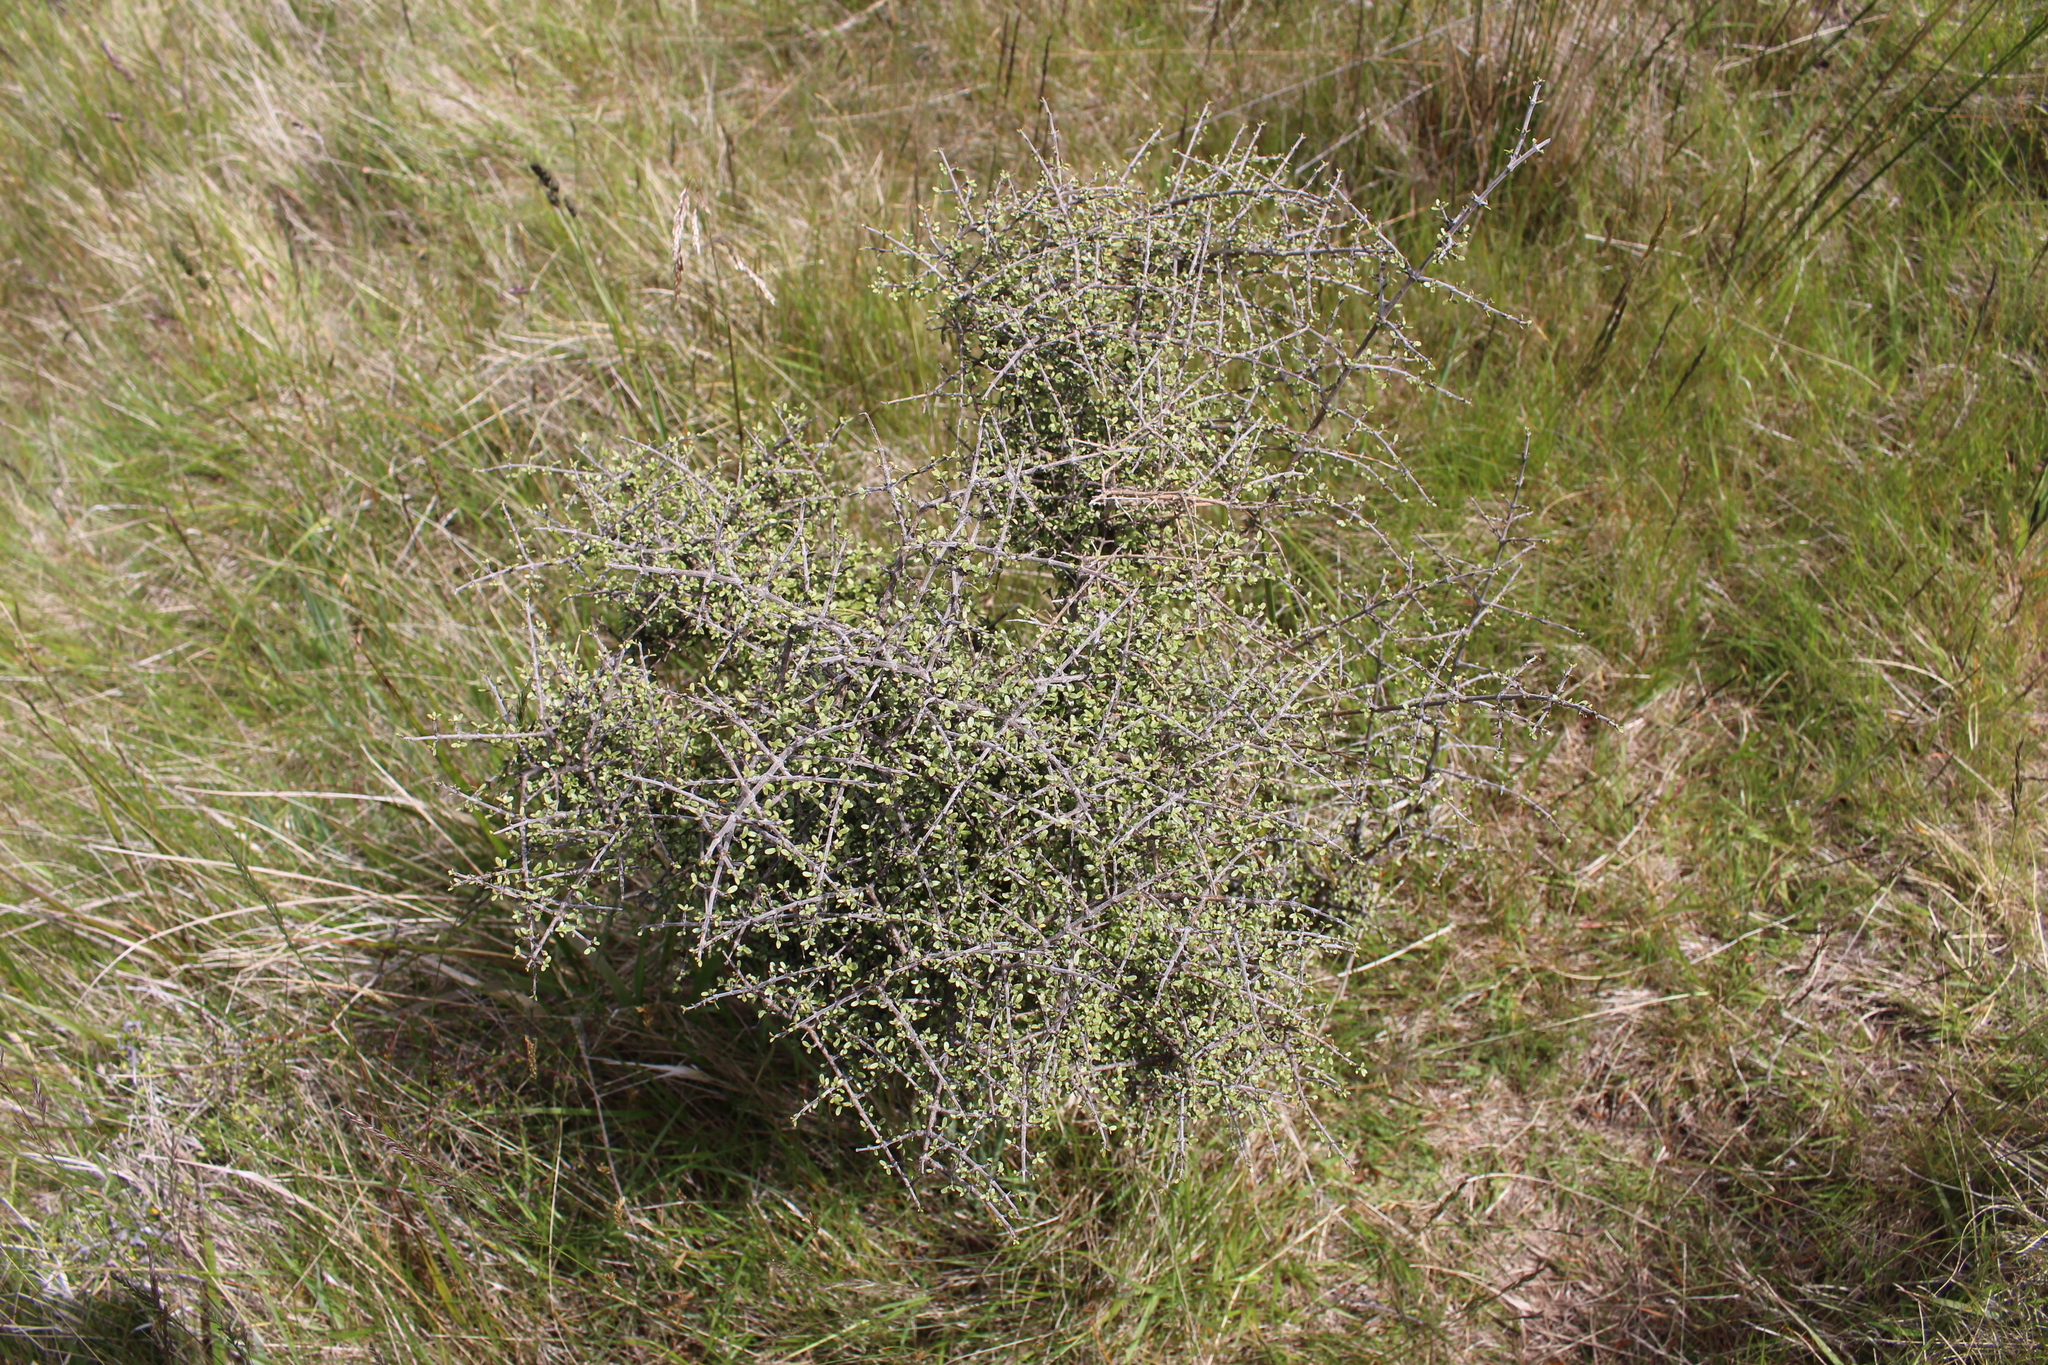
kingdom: Plantae
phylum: Tracheophyta
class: Magnoliopsida
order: Gentianales
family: Rubiaceae
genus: Coprosma
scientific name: Coprosma dumosa
